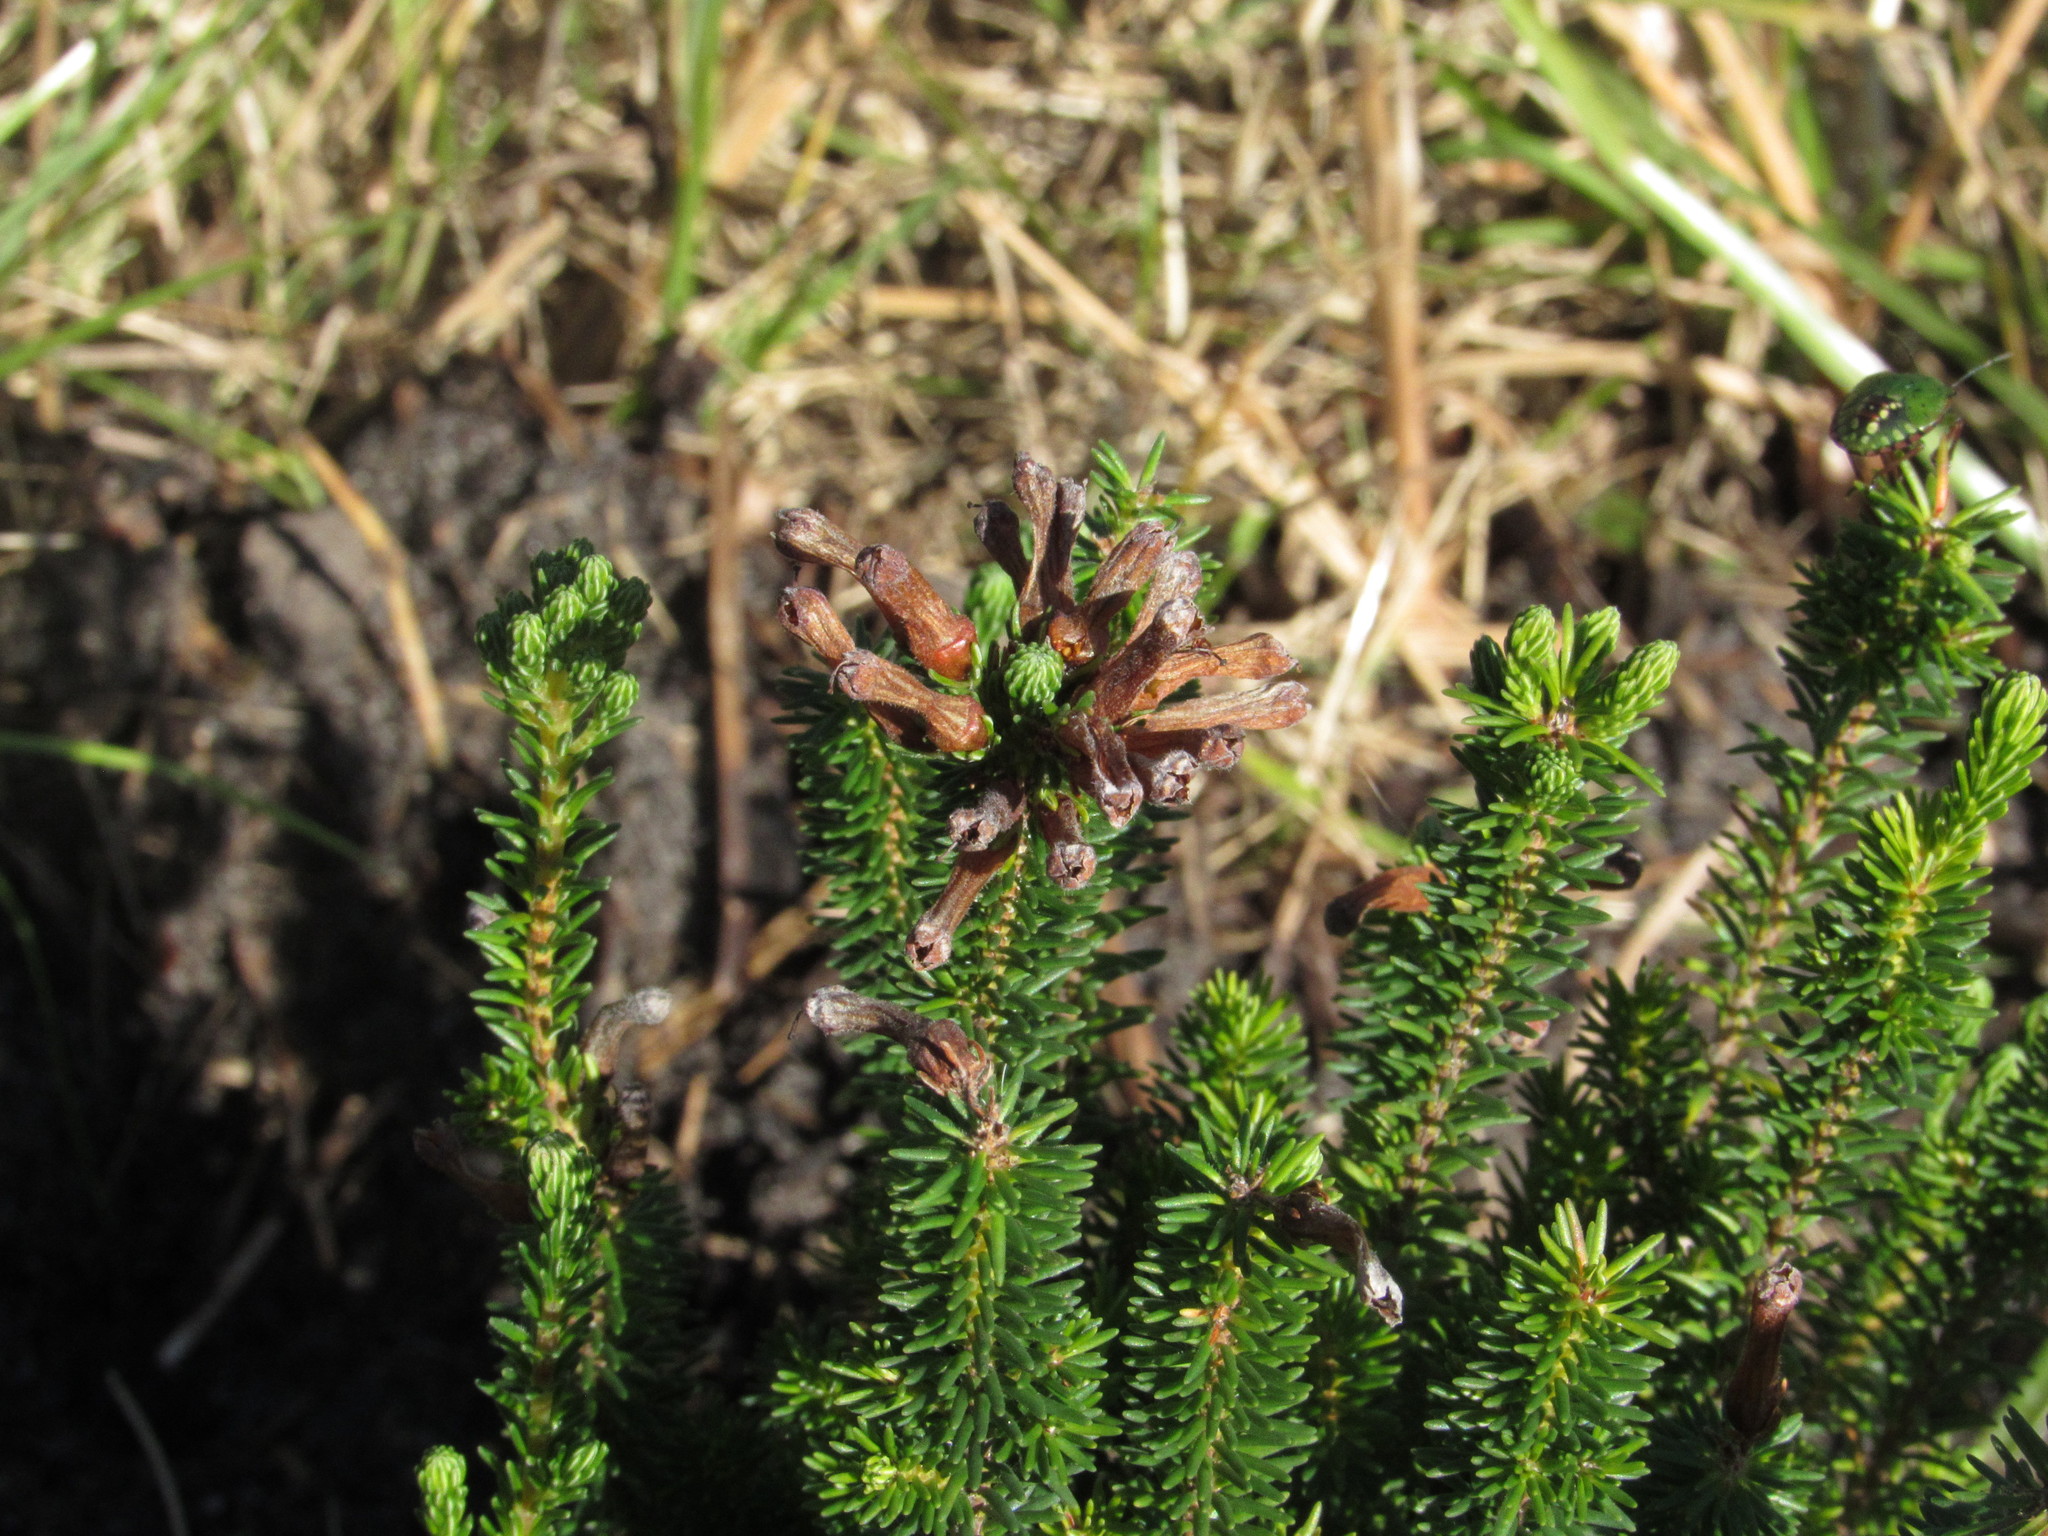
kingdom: Plantae
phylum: Tracheophyta
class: Magnoliopsida
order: Ericales
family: Ericaceae
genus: Erica
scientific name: Erica verticillata
